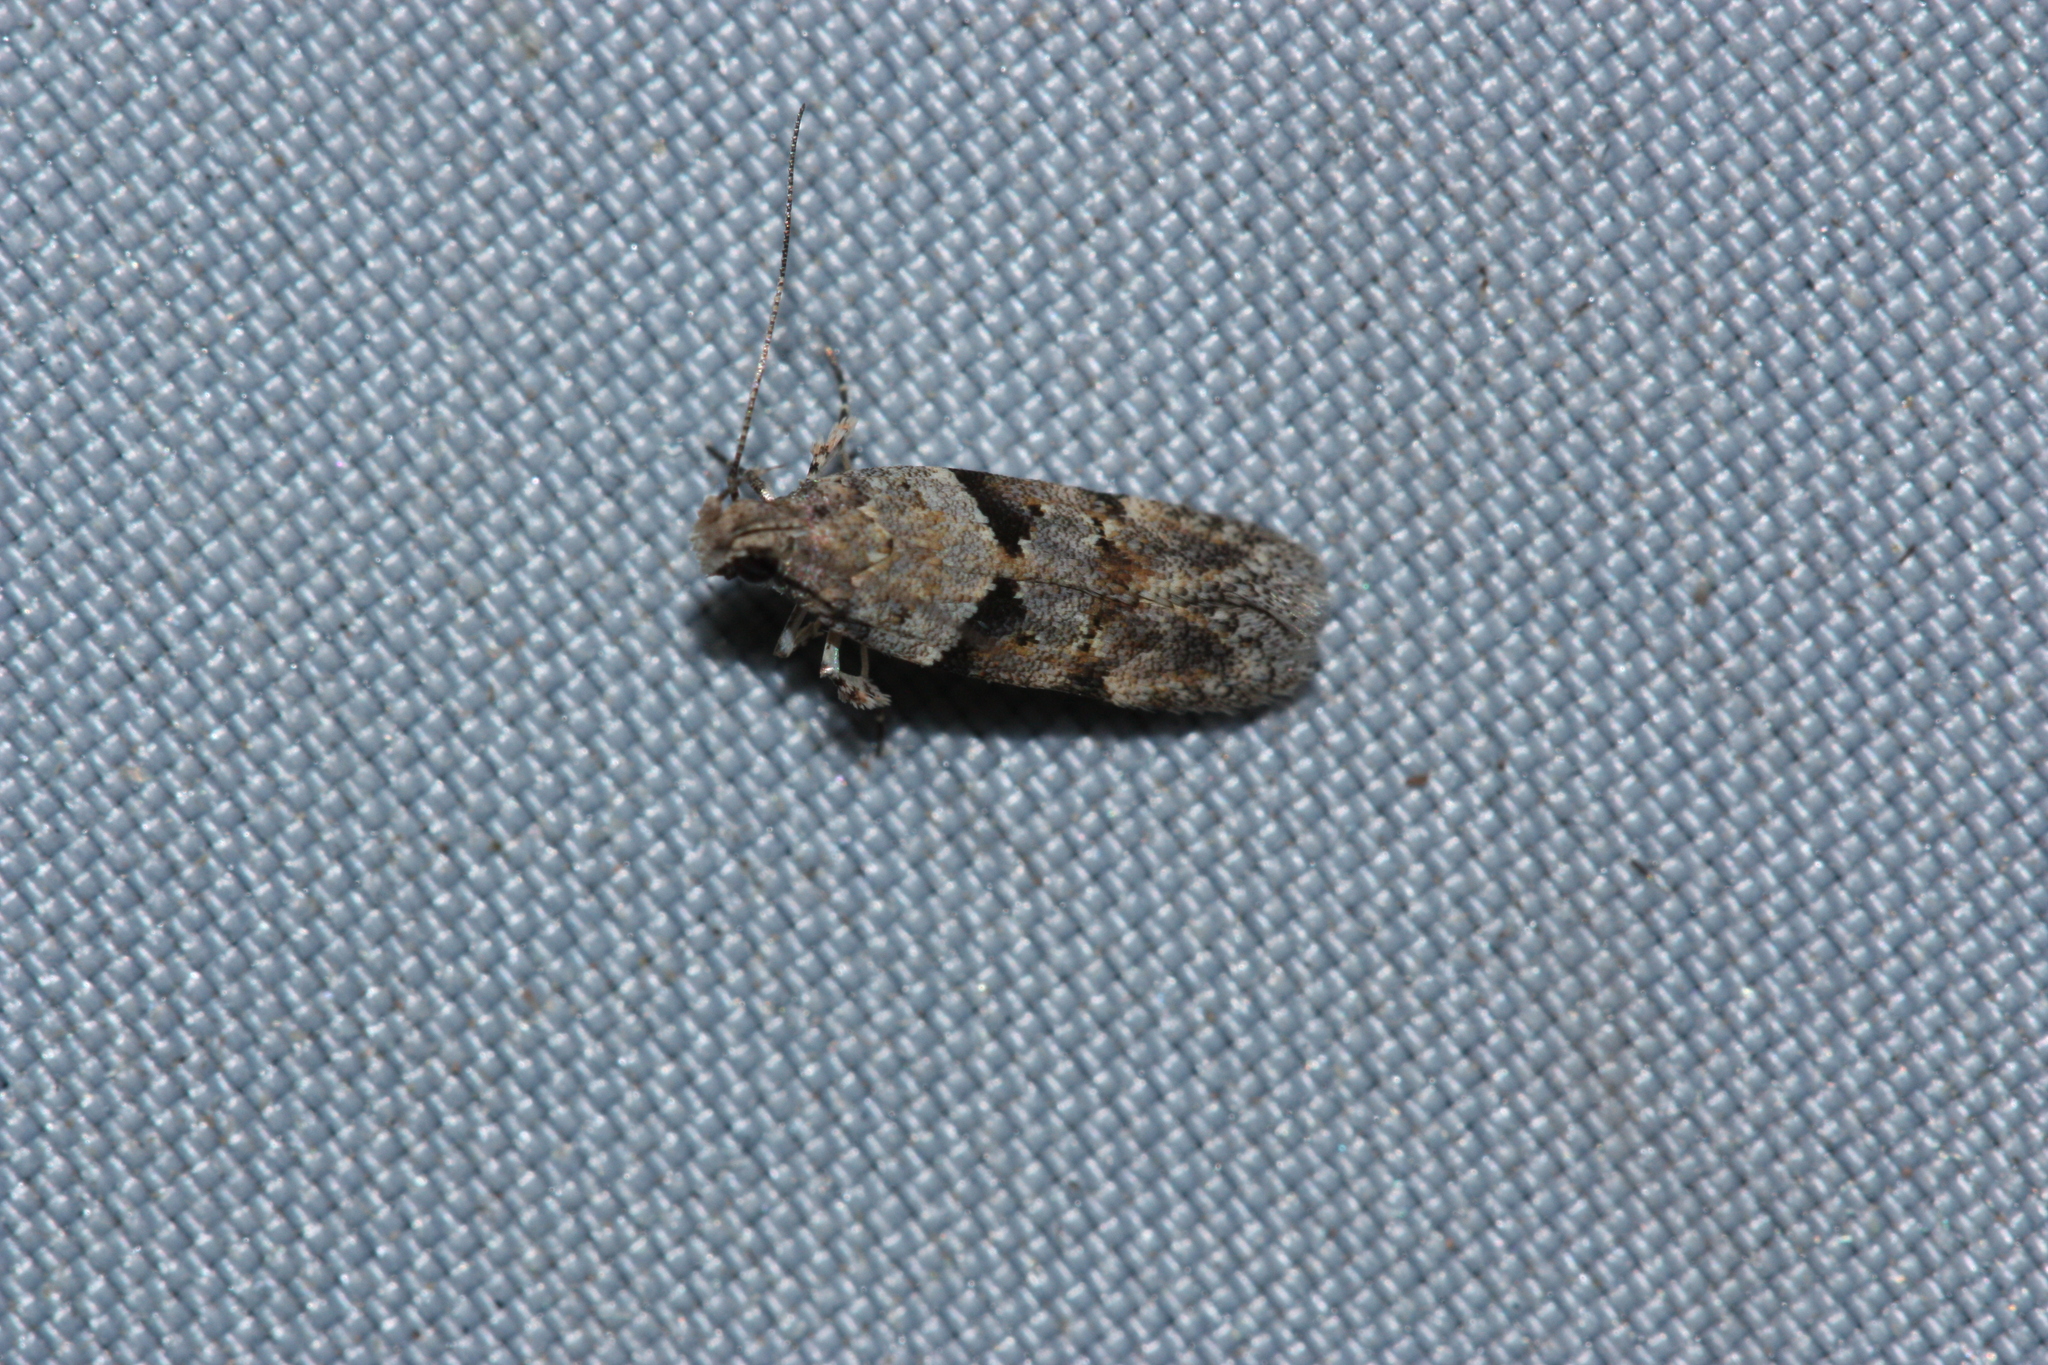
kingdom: Animalia
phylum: Arthropoda
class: Insecta
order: Lepidoptera
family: Gelechiidae
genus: Faculta
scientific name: Faculta inaequalis
